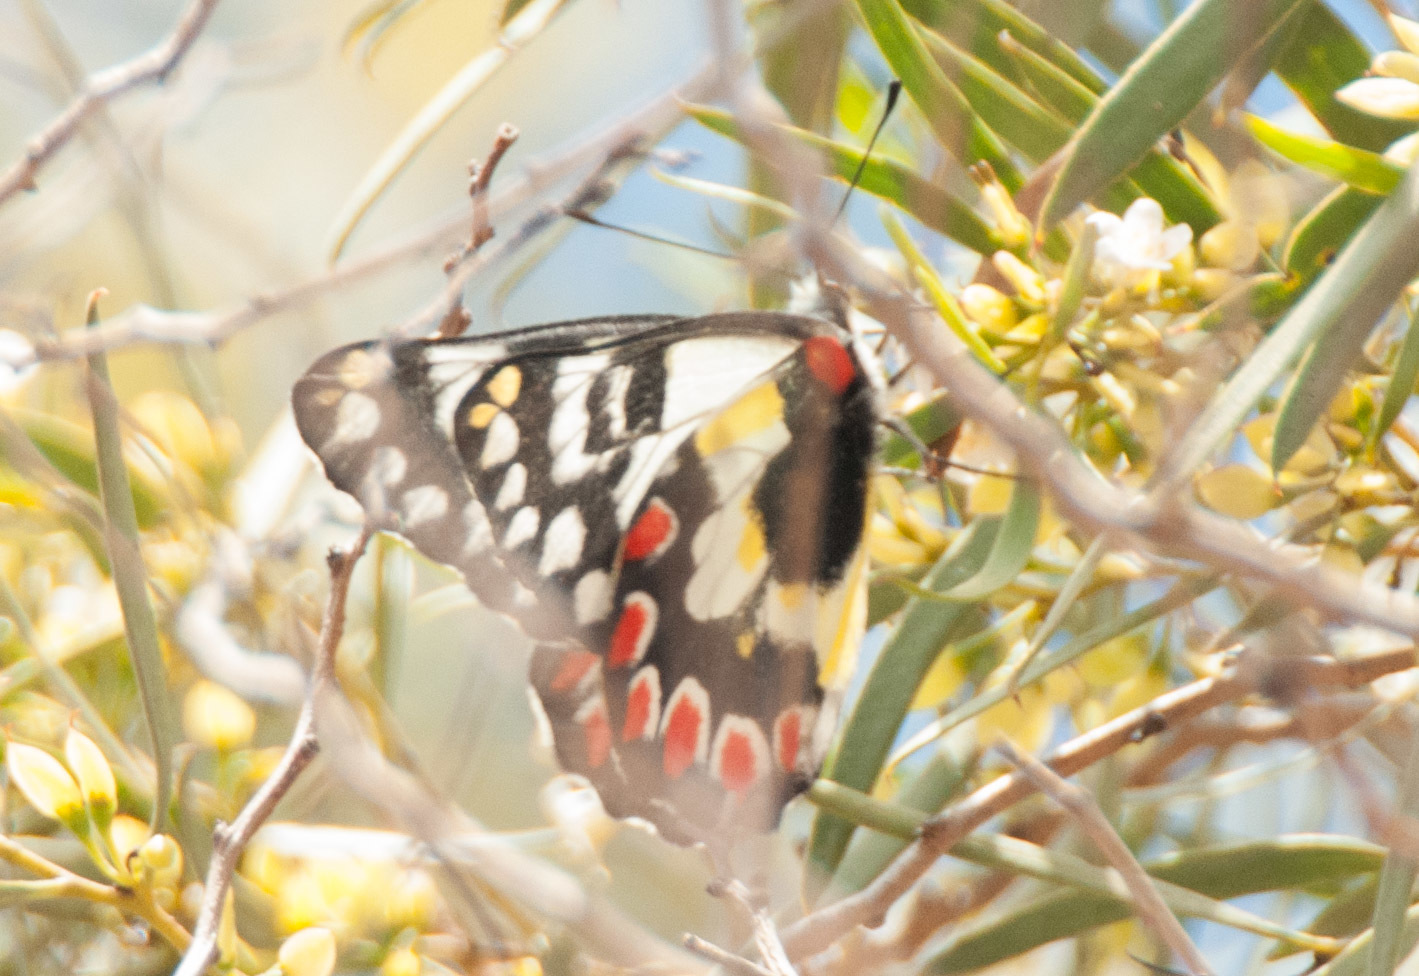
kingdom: Animalia
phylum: Arthropoda
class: Insecta
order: Lepidoptera
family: Pieridae
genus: Delias
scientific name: Delias aganippe
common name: Red-spotted jezebel
